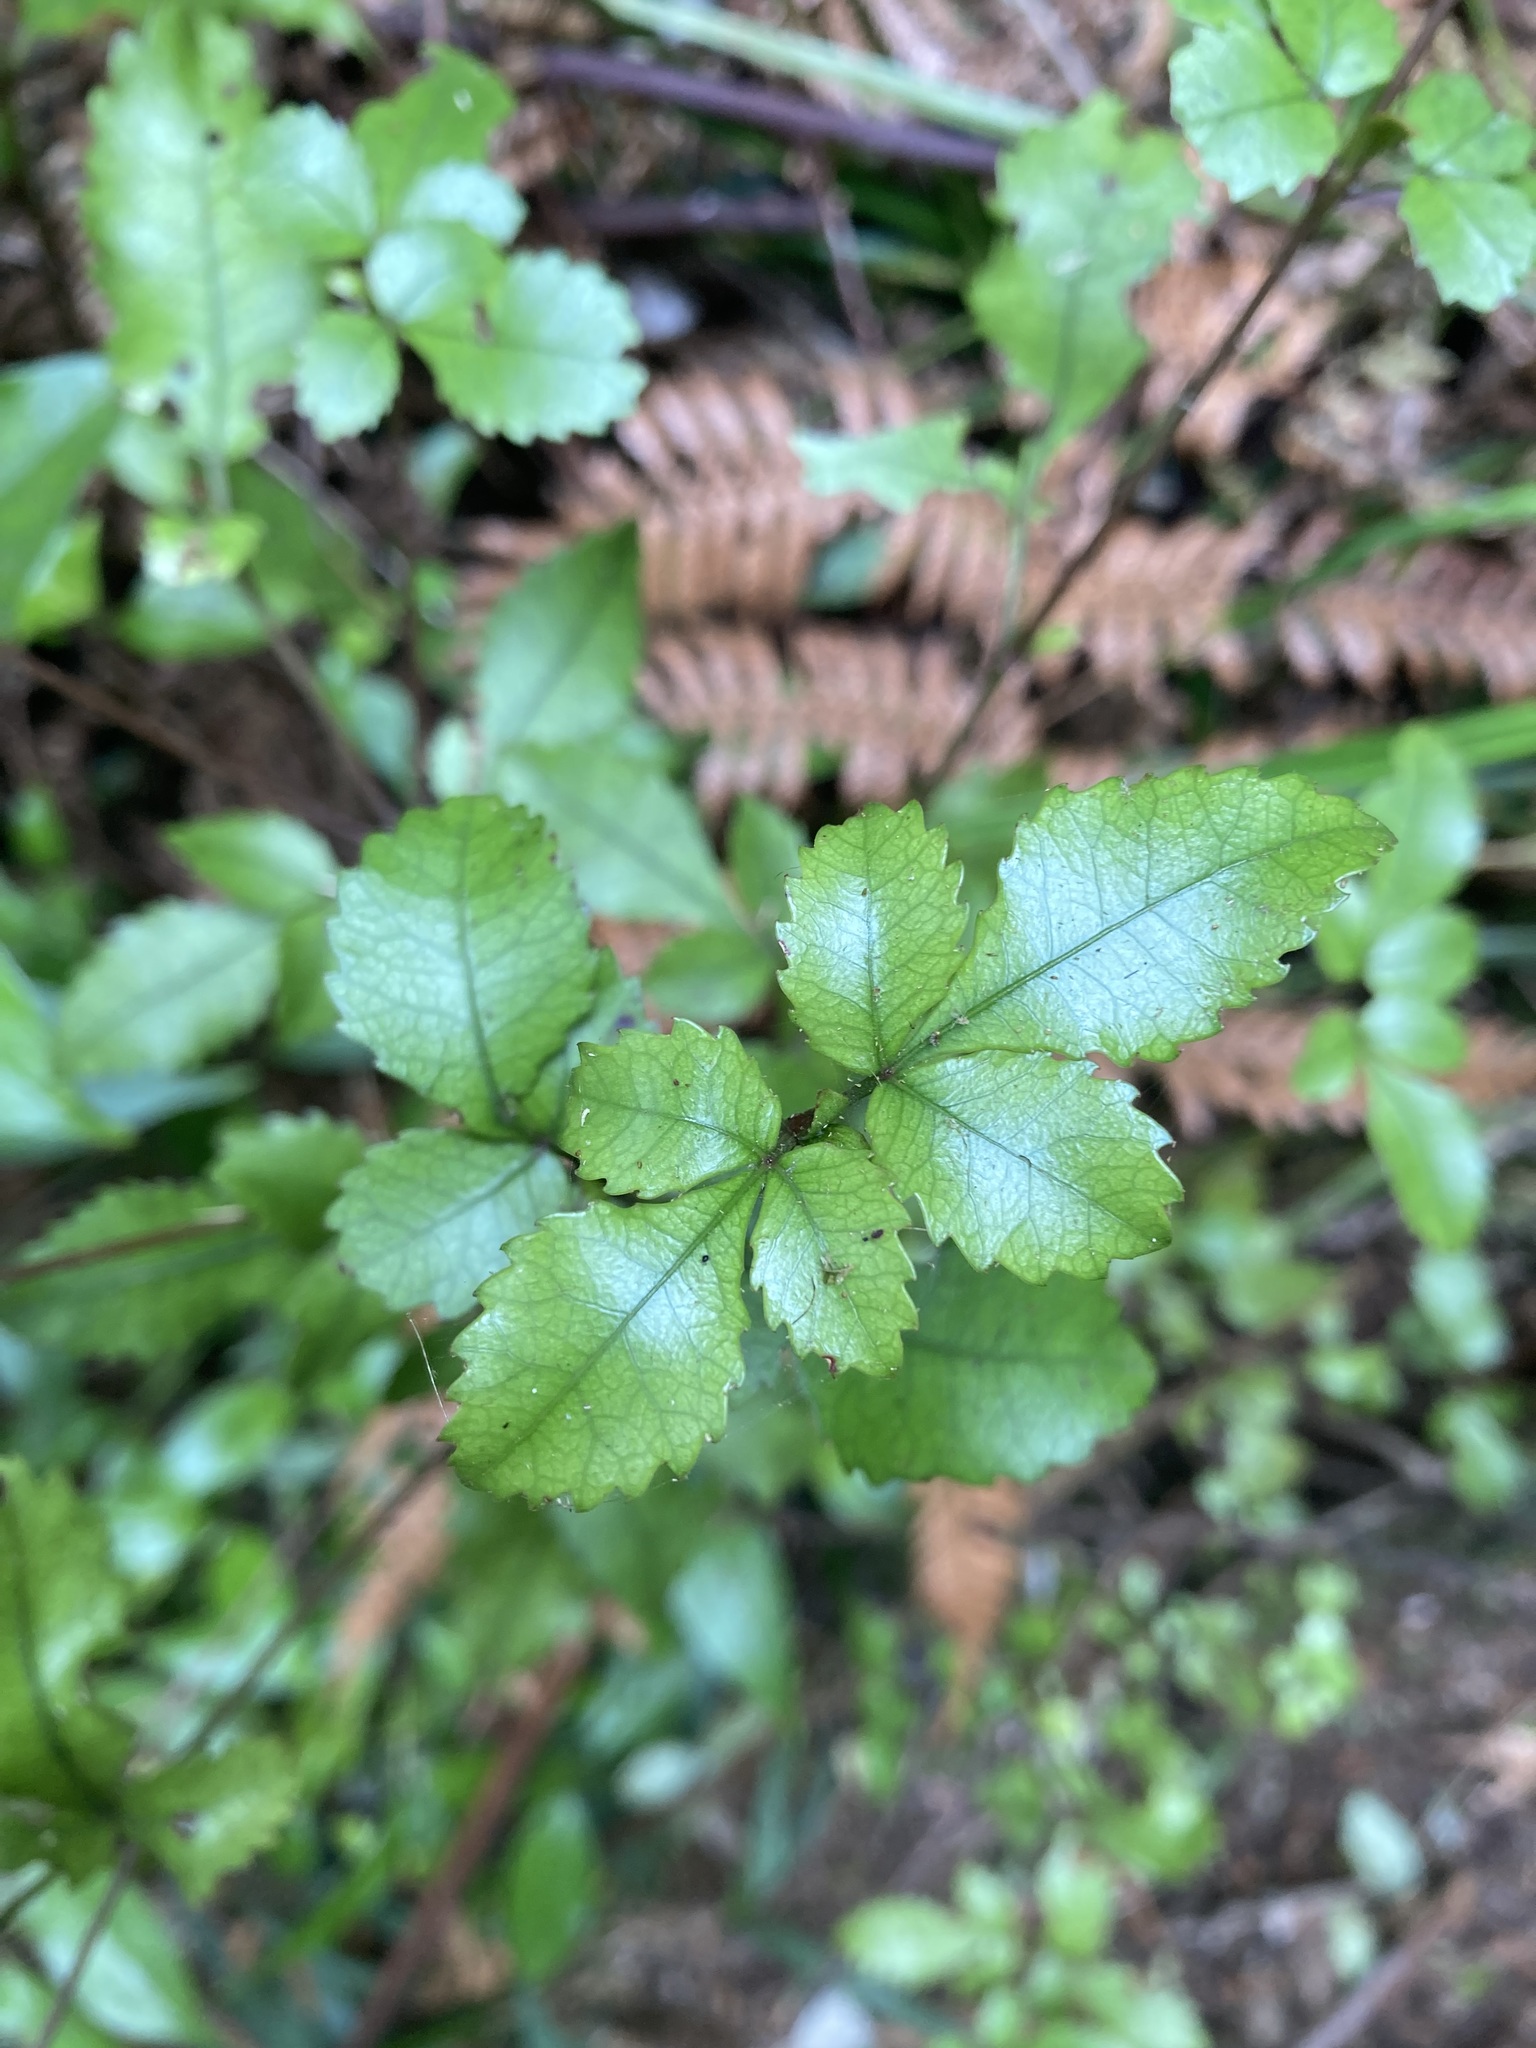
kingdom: Plantae
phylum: Tracheophyta
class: Magnoliopsida
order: Oxalidales
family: Cunoniaceae
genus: Pterophylla
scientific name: Pterophylla racemosa
